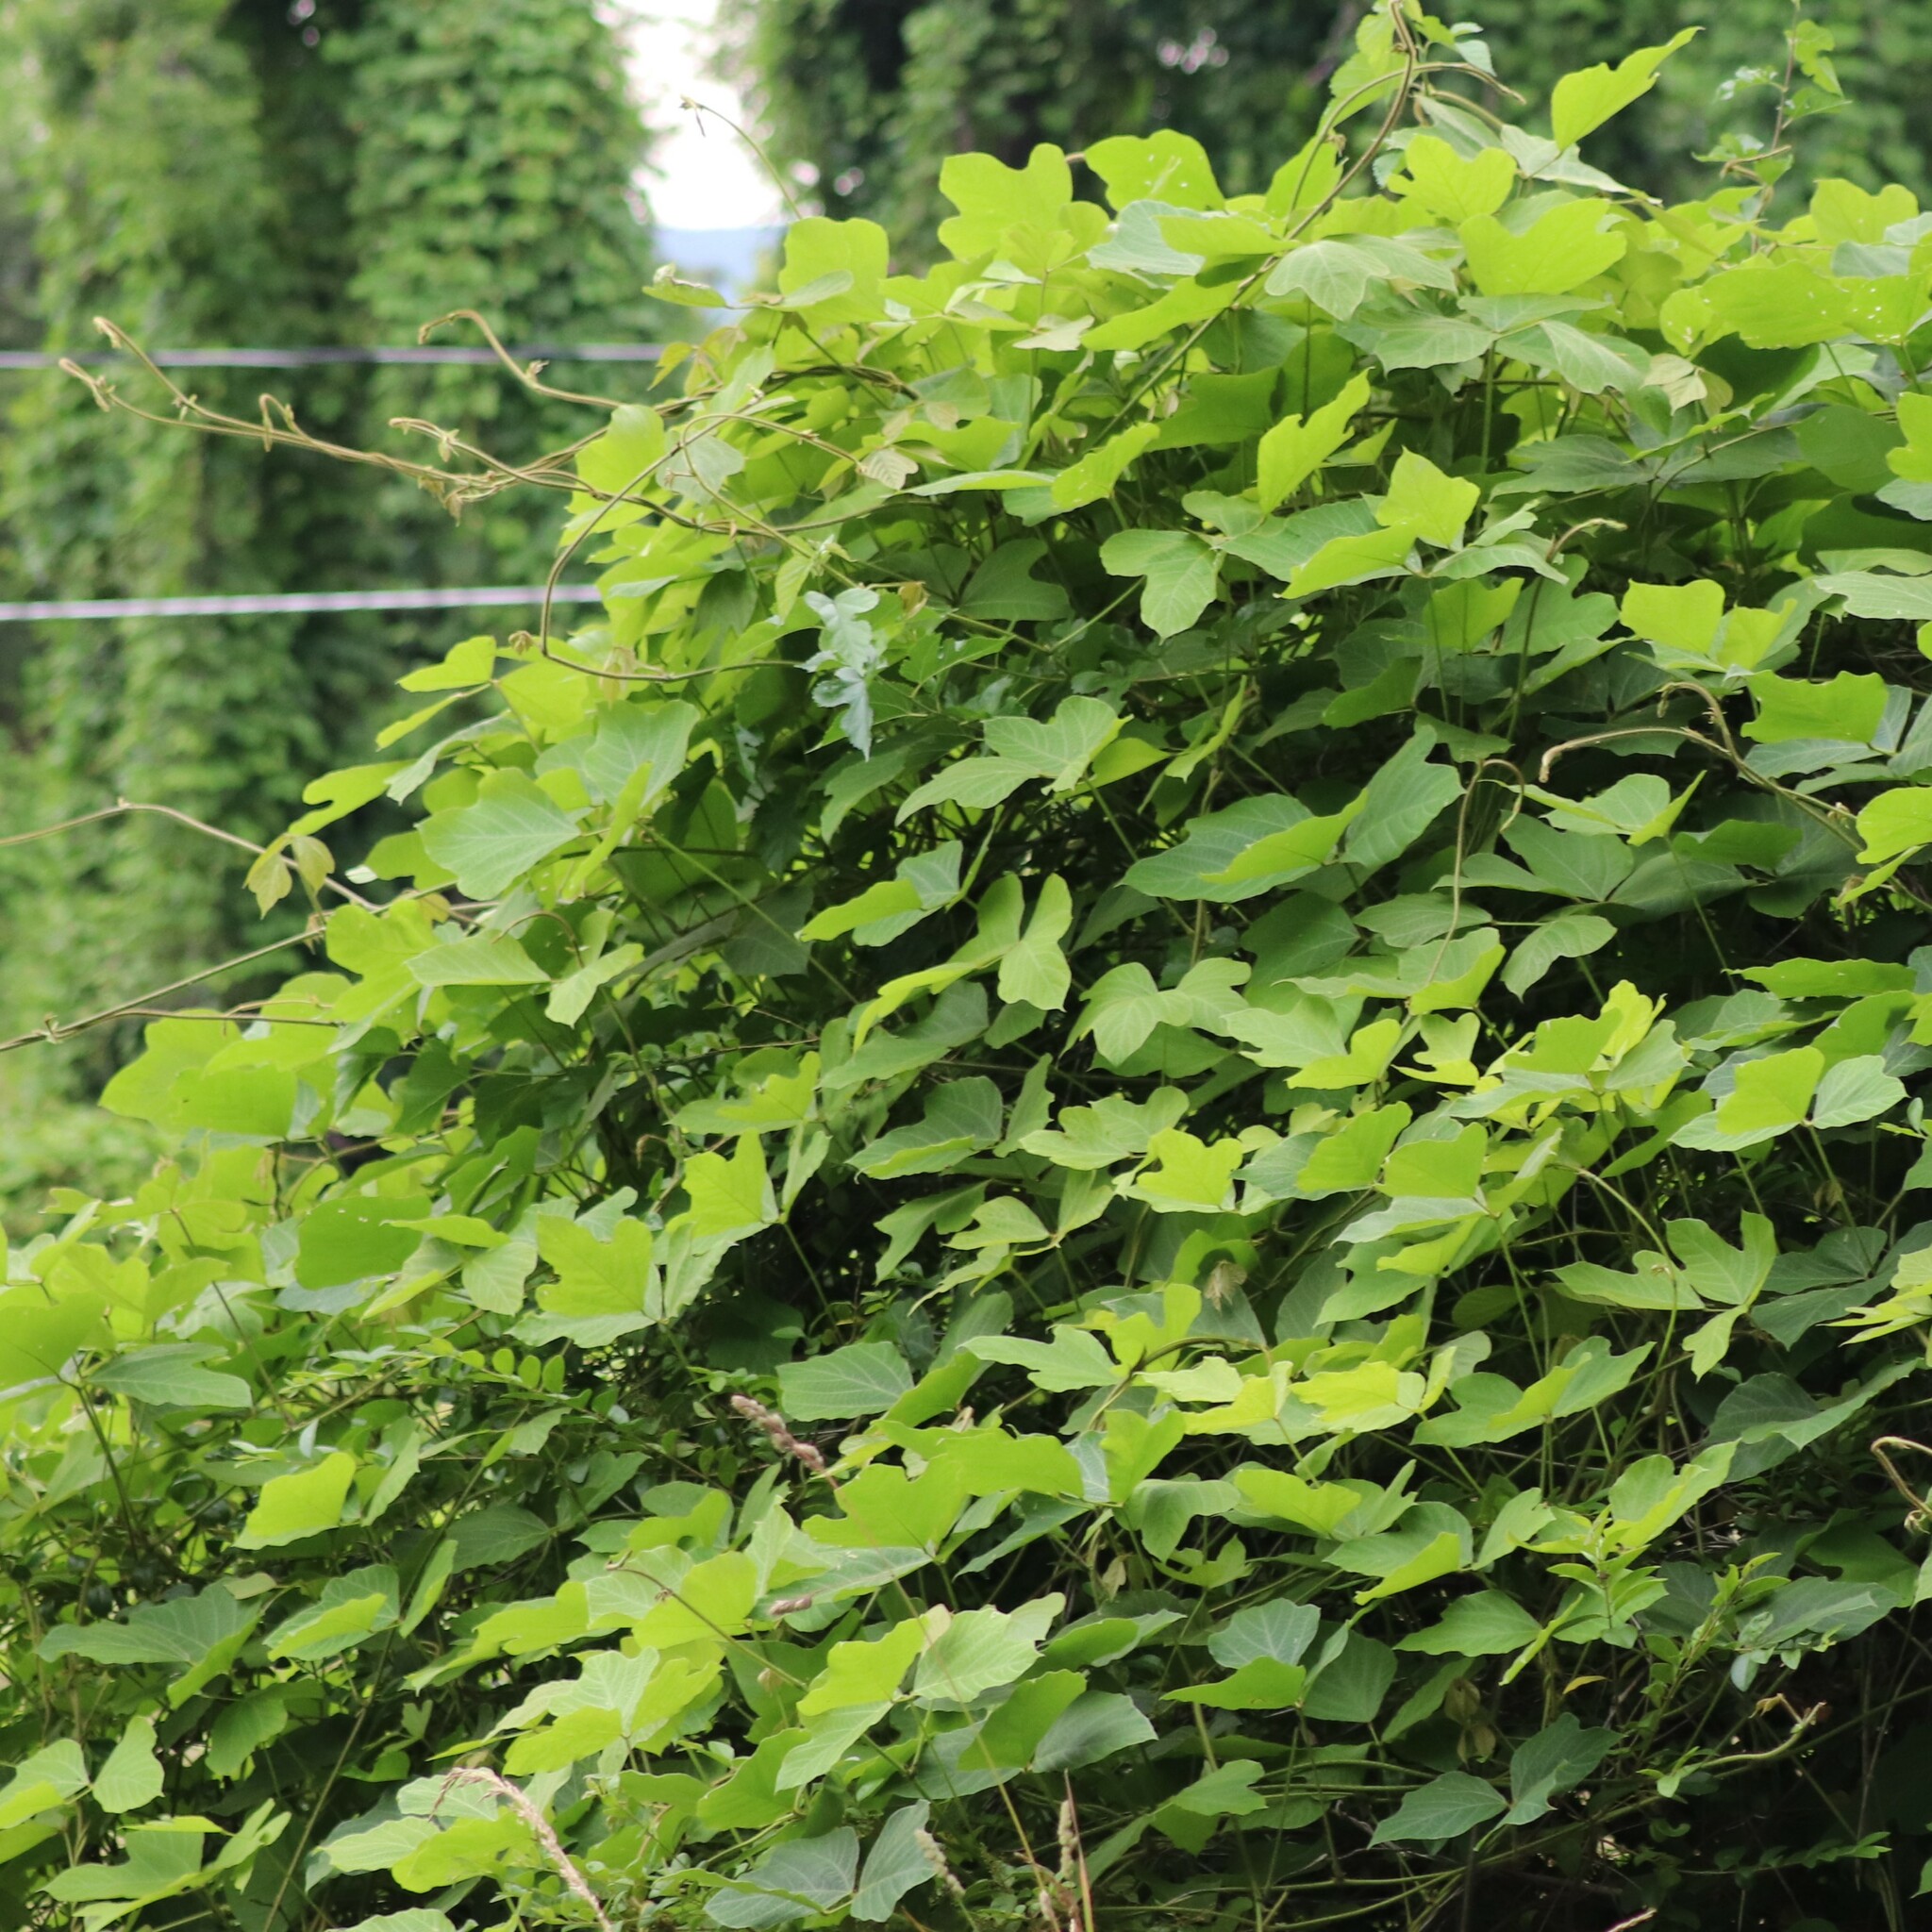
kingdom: Plantae
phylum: Tracheophyta
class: Magnoliopsida
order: Fabales
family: Fabaceae
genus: Pueraria
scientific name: Pueraria montana
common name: Kudzu
